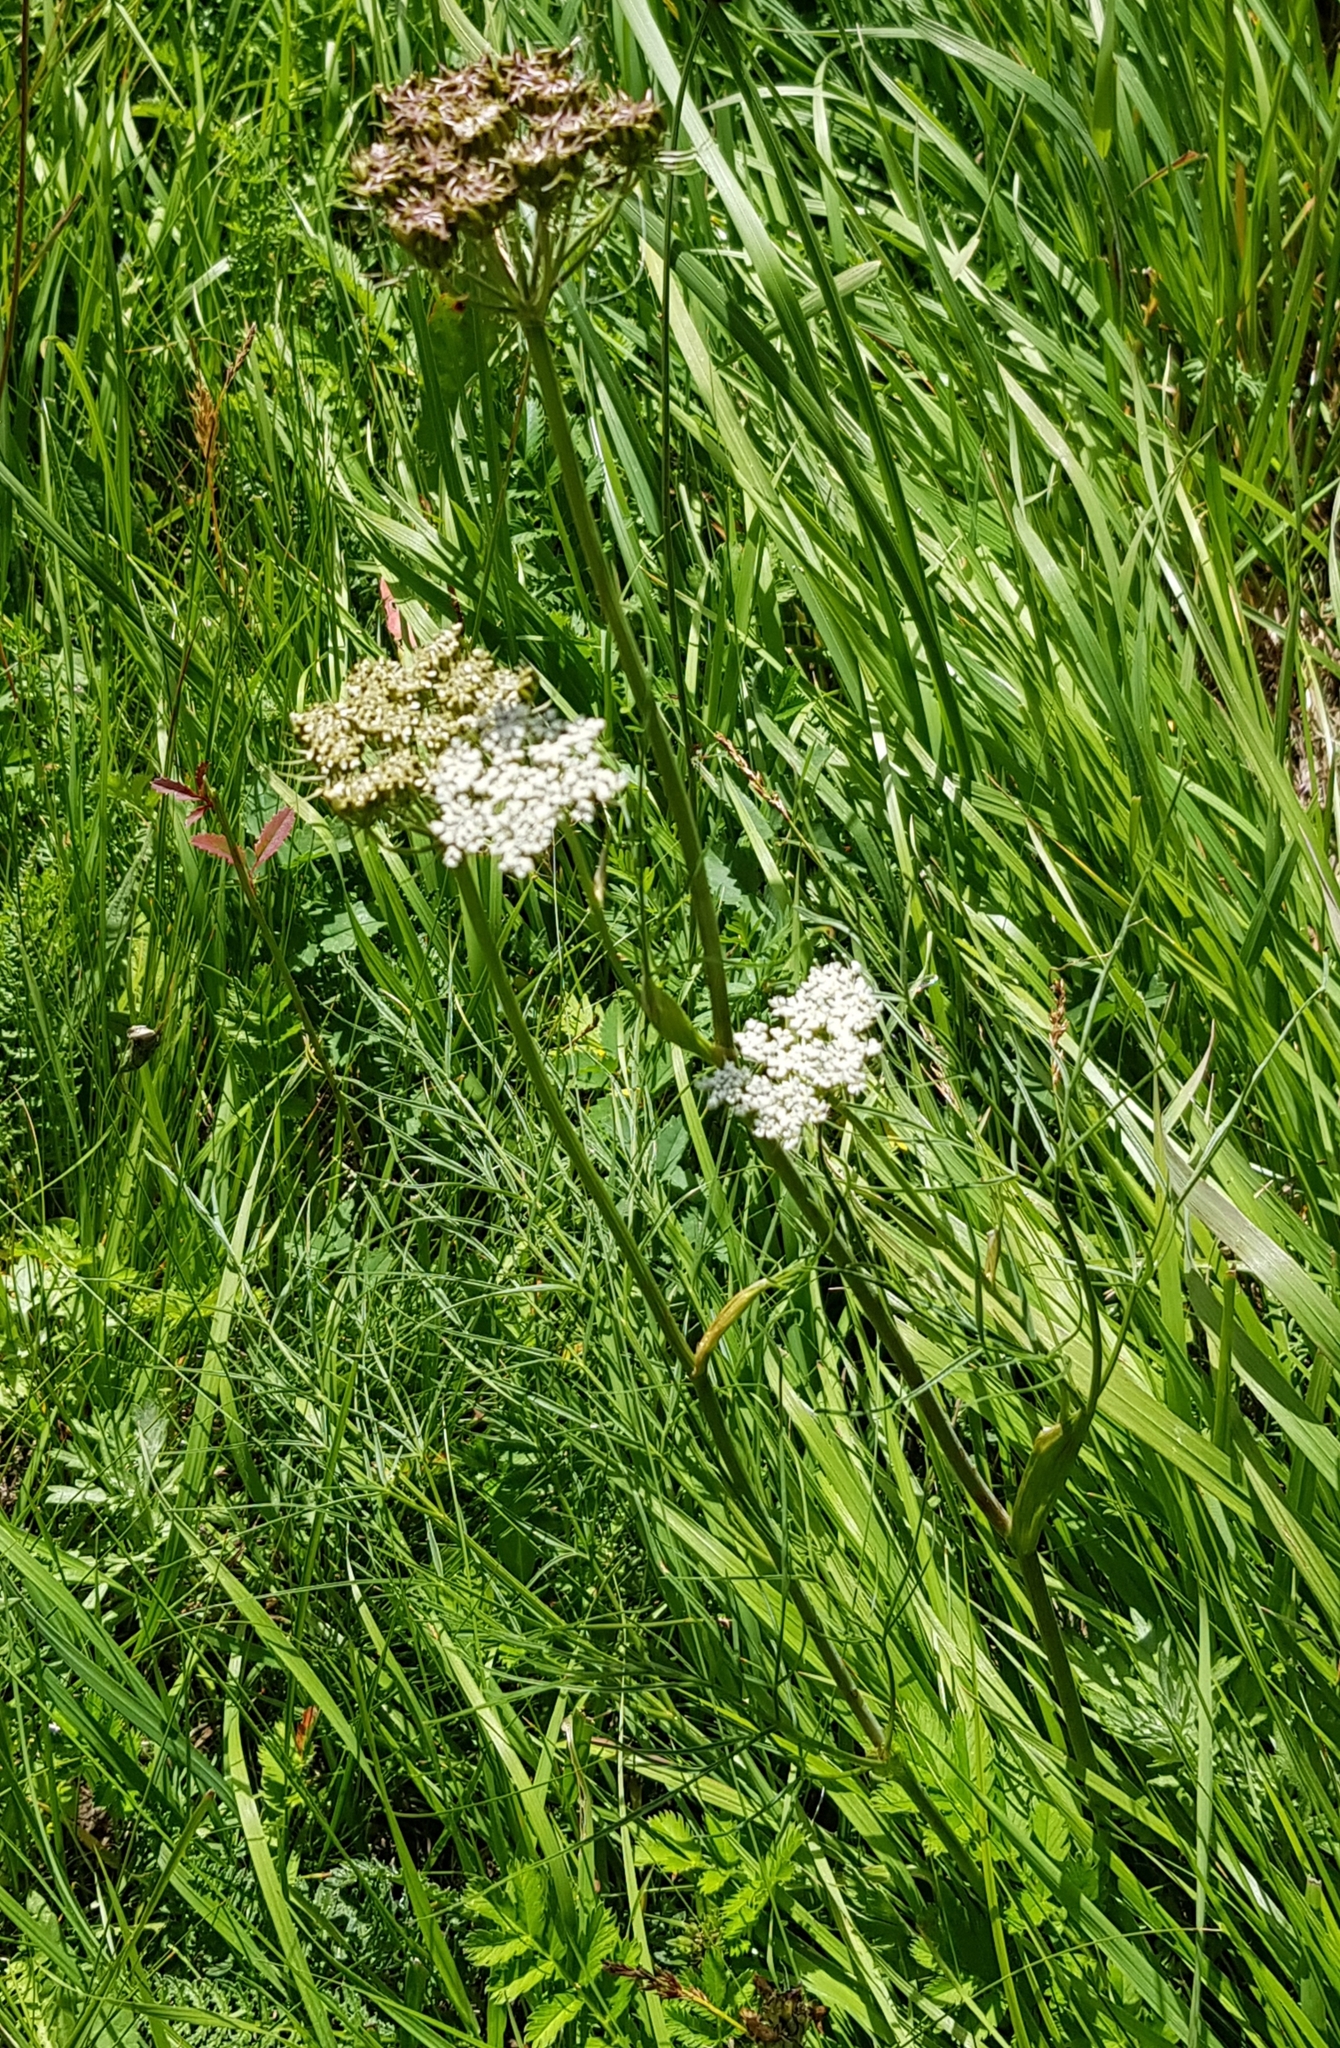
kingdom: Plantae
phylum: Tracheophyta
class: Magnoliopsida
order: Apiales
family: Apiaceae
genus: Conioselinum
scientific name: Conioselinum longifolium
